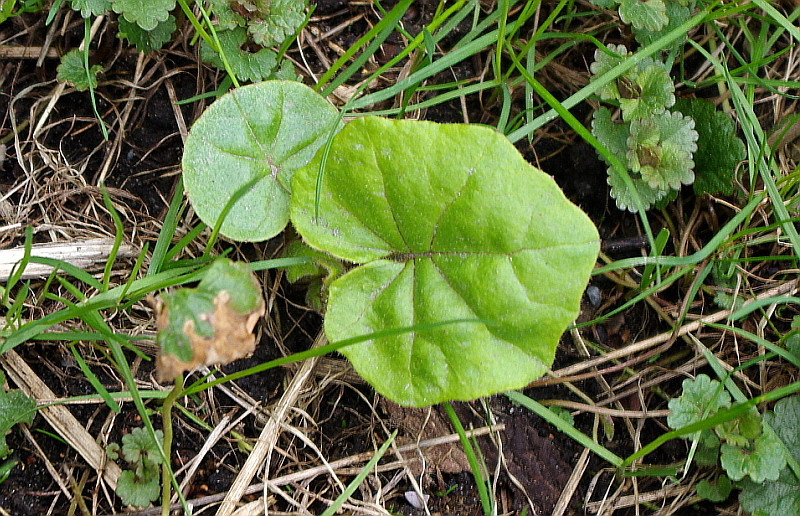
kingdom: Plantae
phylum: Tracheophyta
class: Magnoliopsida
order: Asterales
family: Asteraceae
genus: Tussilago
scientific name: Tussilago farfara
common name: Coltsfoot
